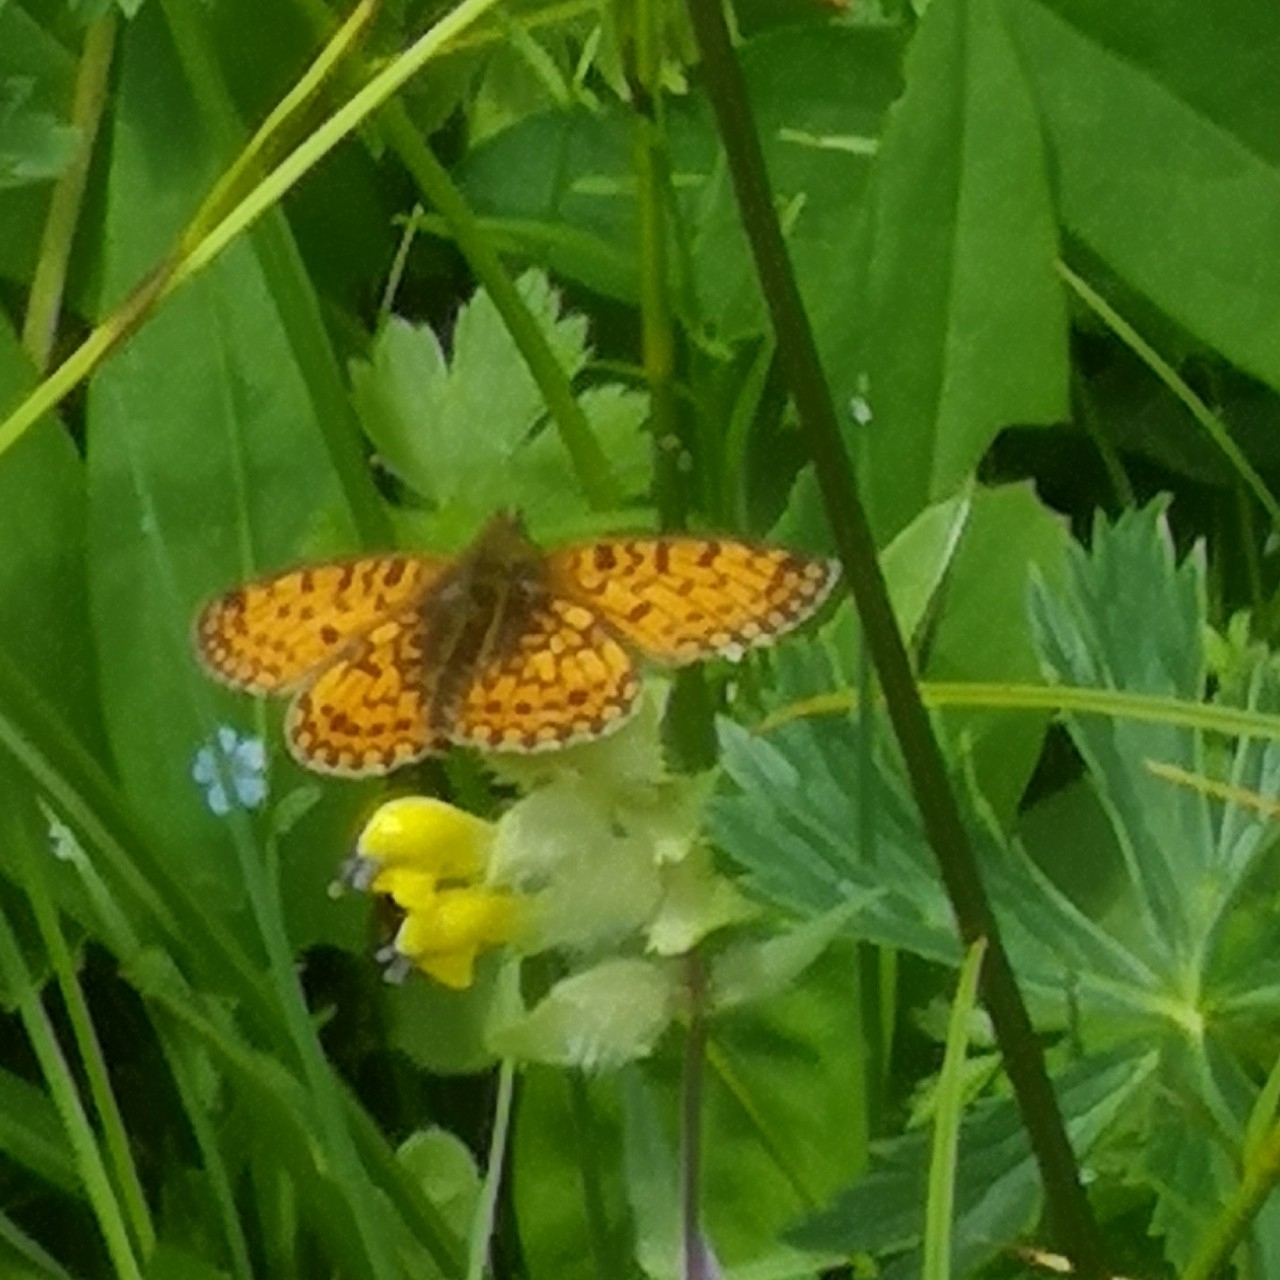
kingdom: Animalia
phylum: Arthropoda
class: Insecta
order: Lepidoptera
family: Nymphalidae
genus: Boloria
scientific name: Boloria selene
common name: Small pearl-bordered fritillary
